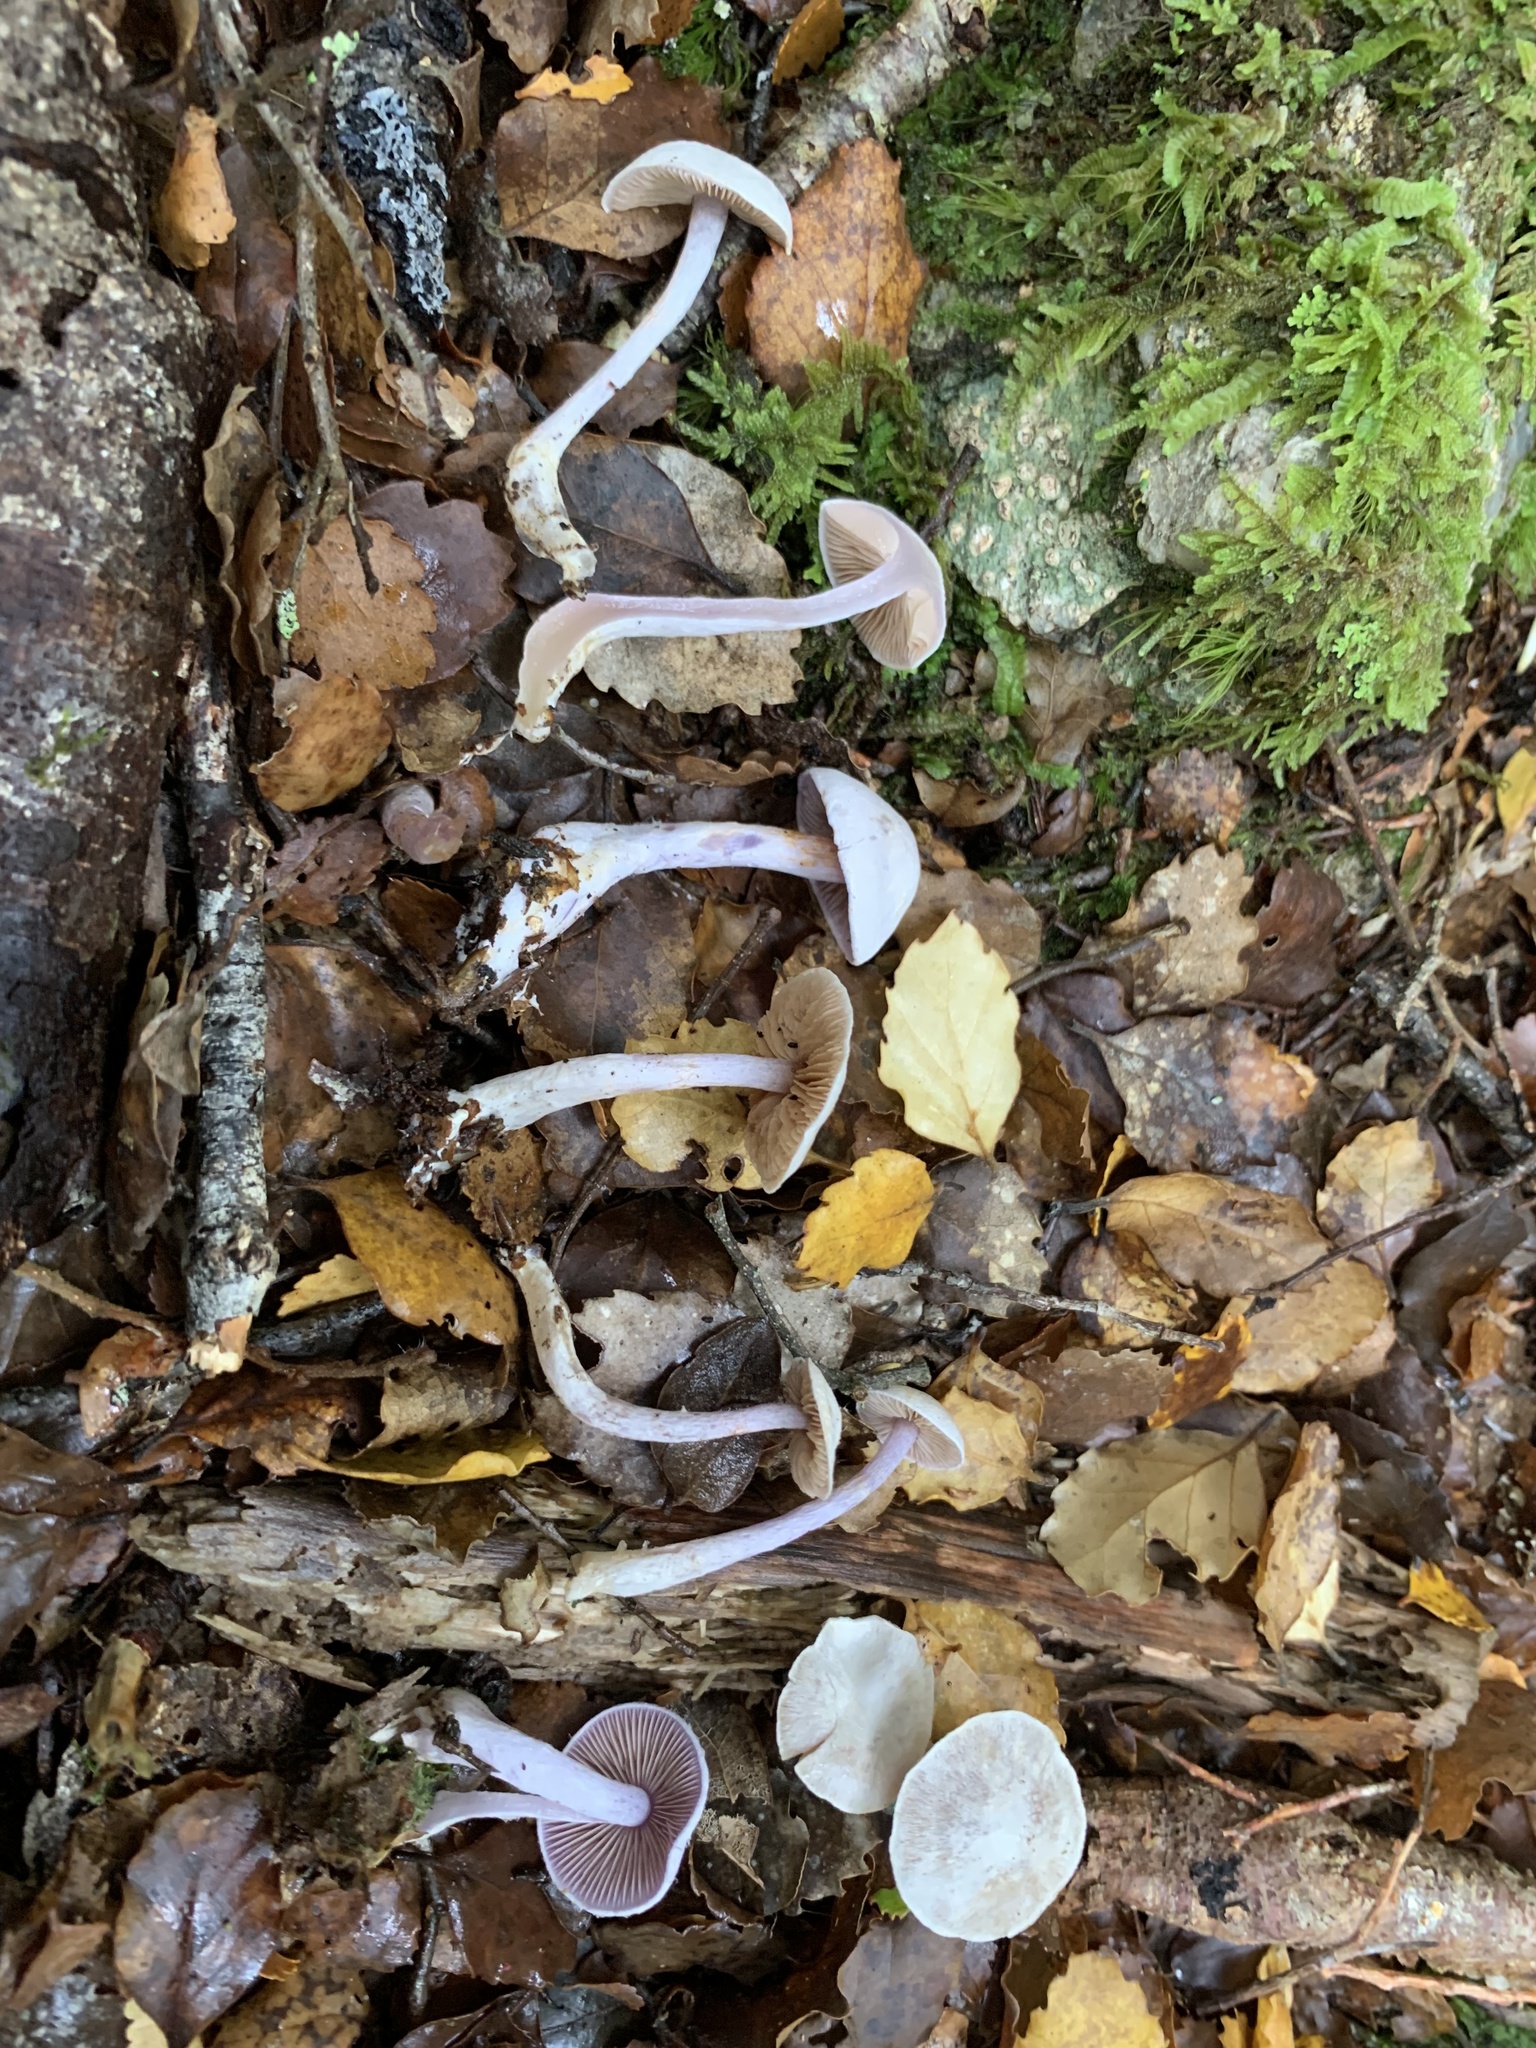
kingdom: Fungi
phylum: Basidiomycota
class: Agaricomycetes
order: Agaricales
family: Cortinariaceae
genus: Thaxterogaster
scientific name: Thaxterogaster laquellus
